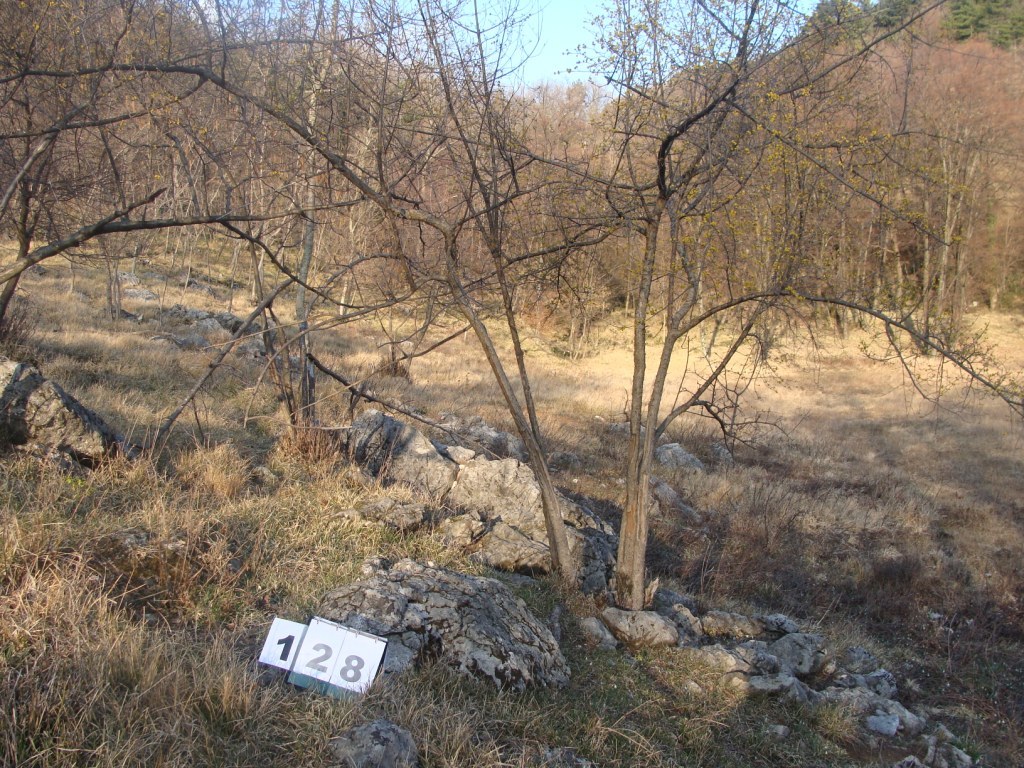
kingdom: Plantae
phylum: Tracheophyta
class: Magnoliopsida
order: Cornales
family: Cornaceae
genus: Cornus
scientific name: Cornus mas
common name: Cornelian-cherry
